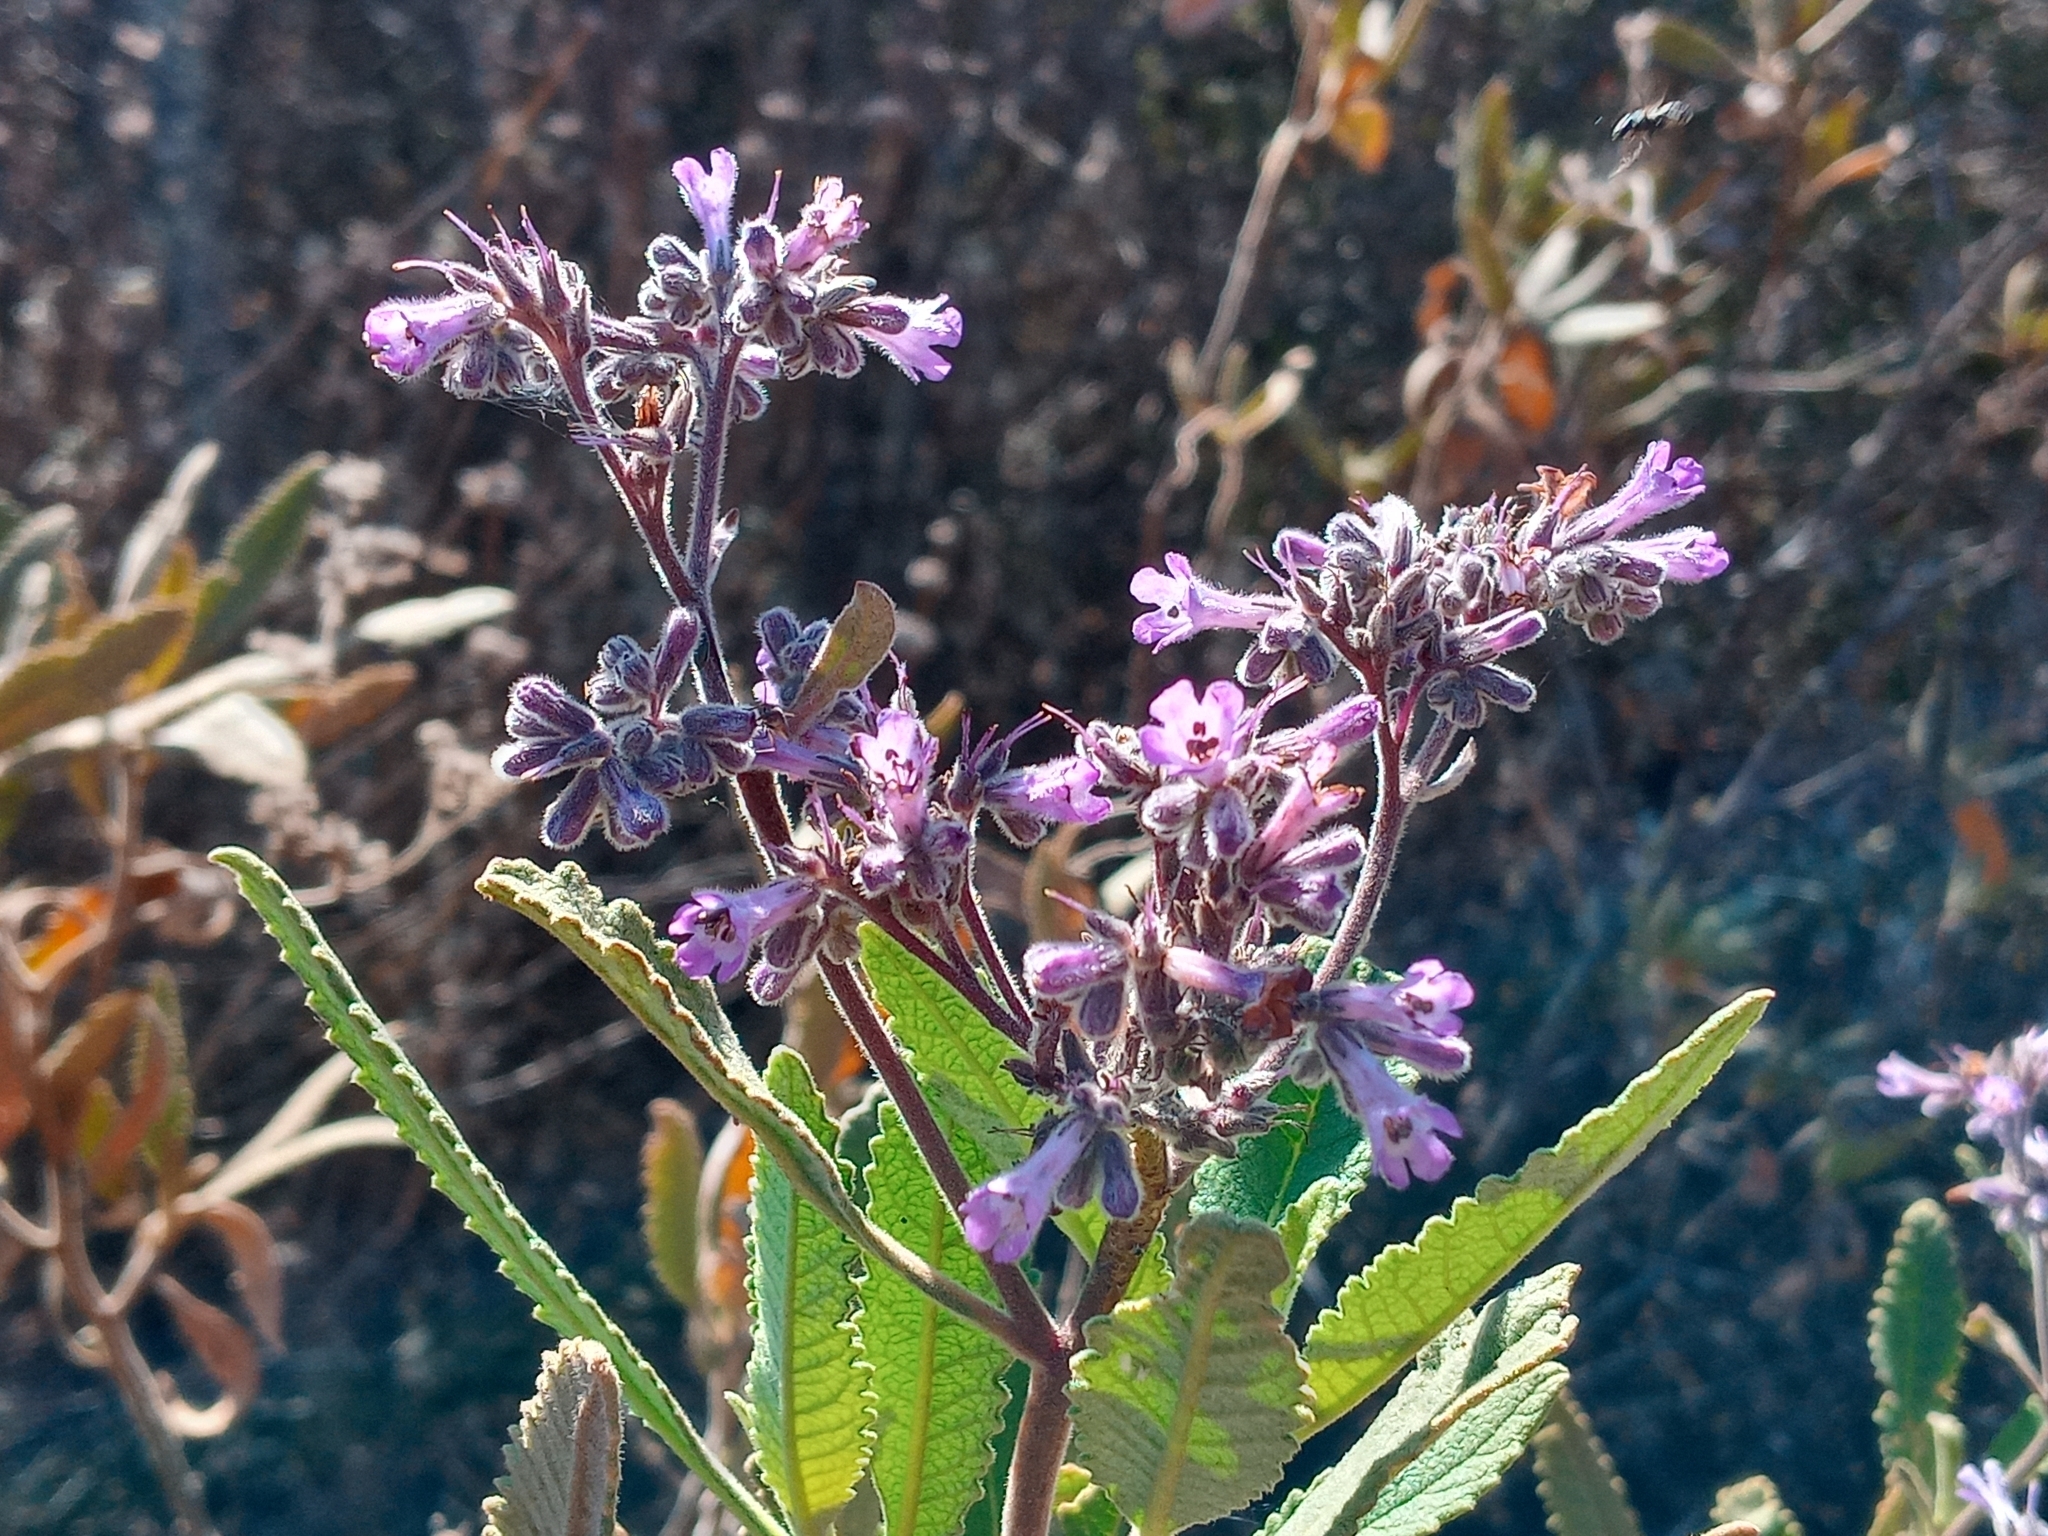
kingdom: Plantae
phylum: Tracheophyta
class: Magnoliopsida
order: Boraginales
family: Namaceae
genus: Eriodictyon
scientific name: Eriodictyon crassifolium
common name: Thick-leaf yerba-santa
